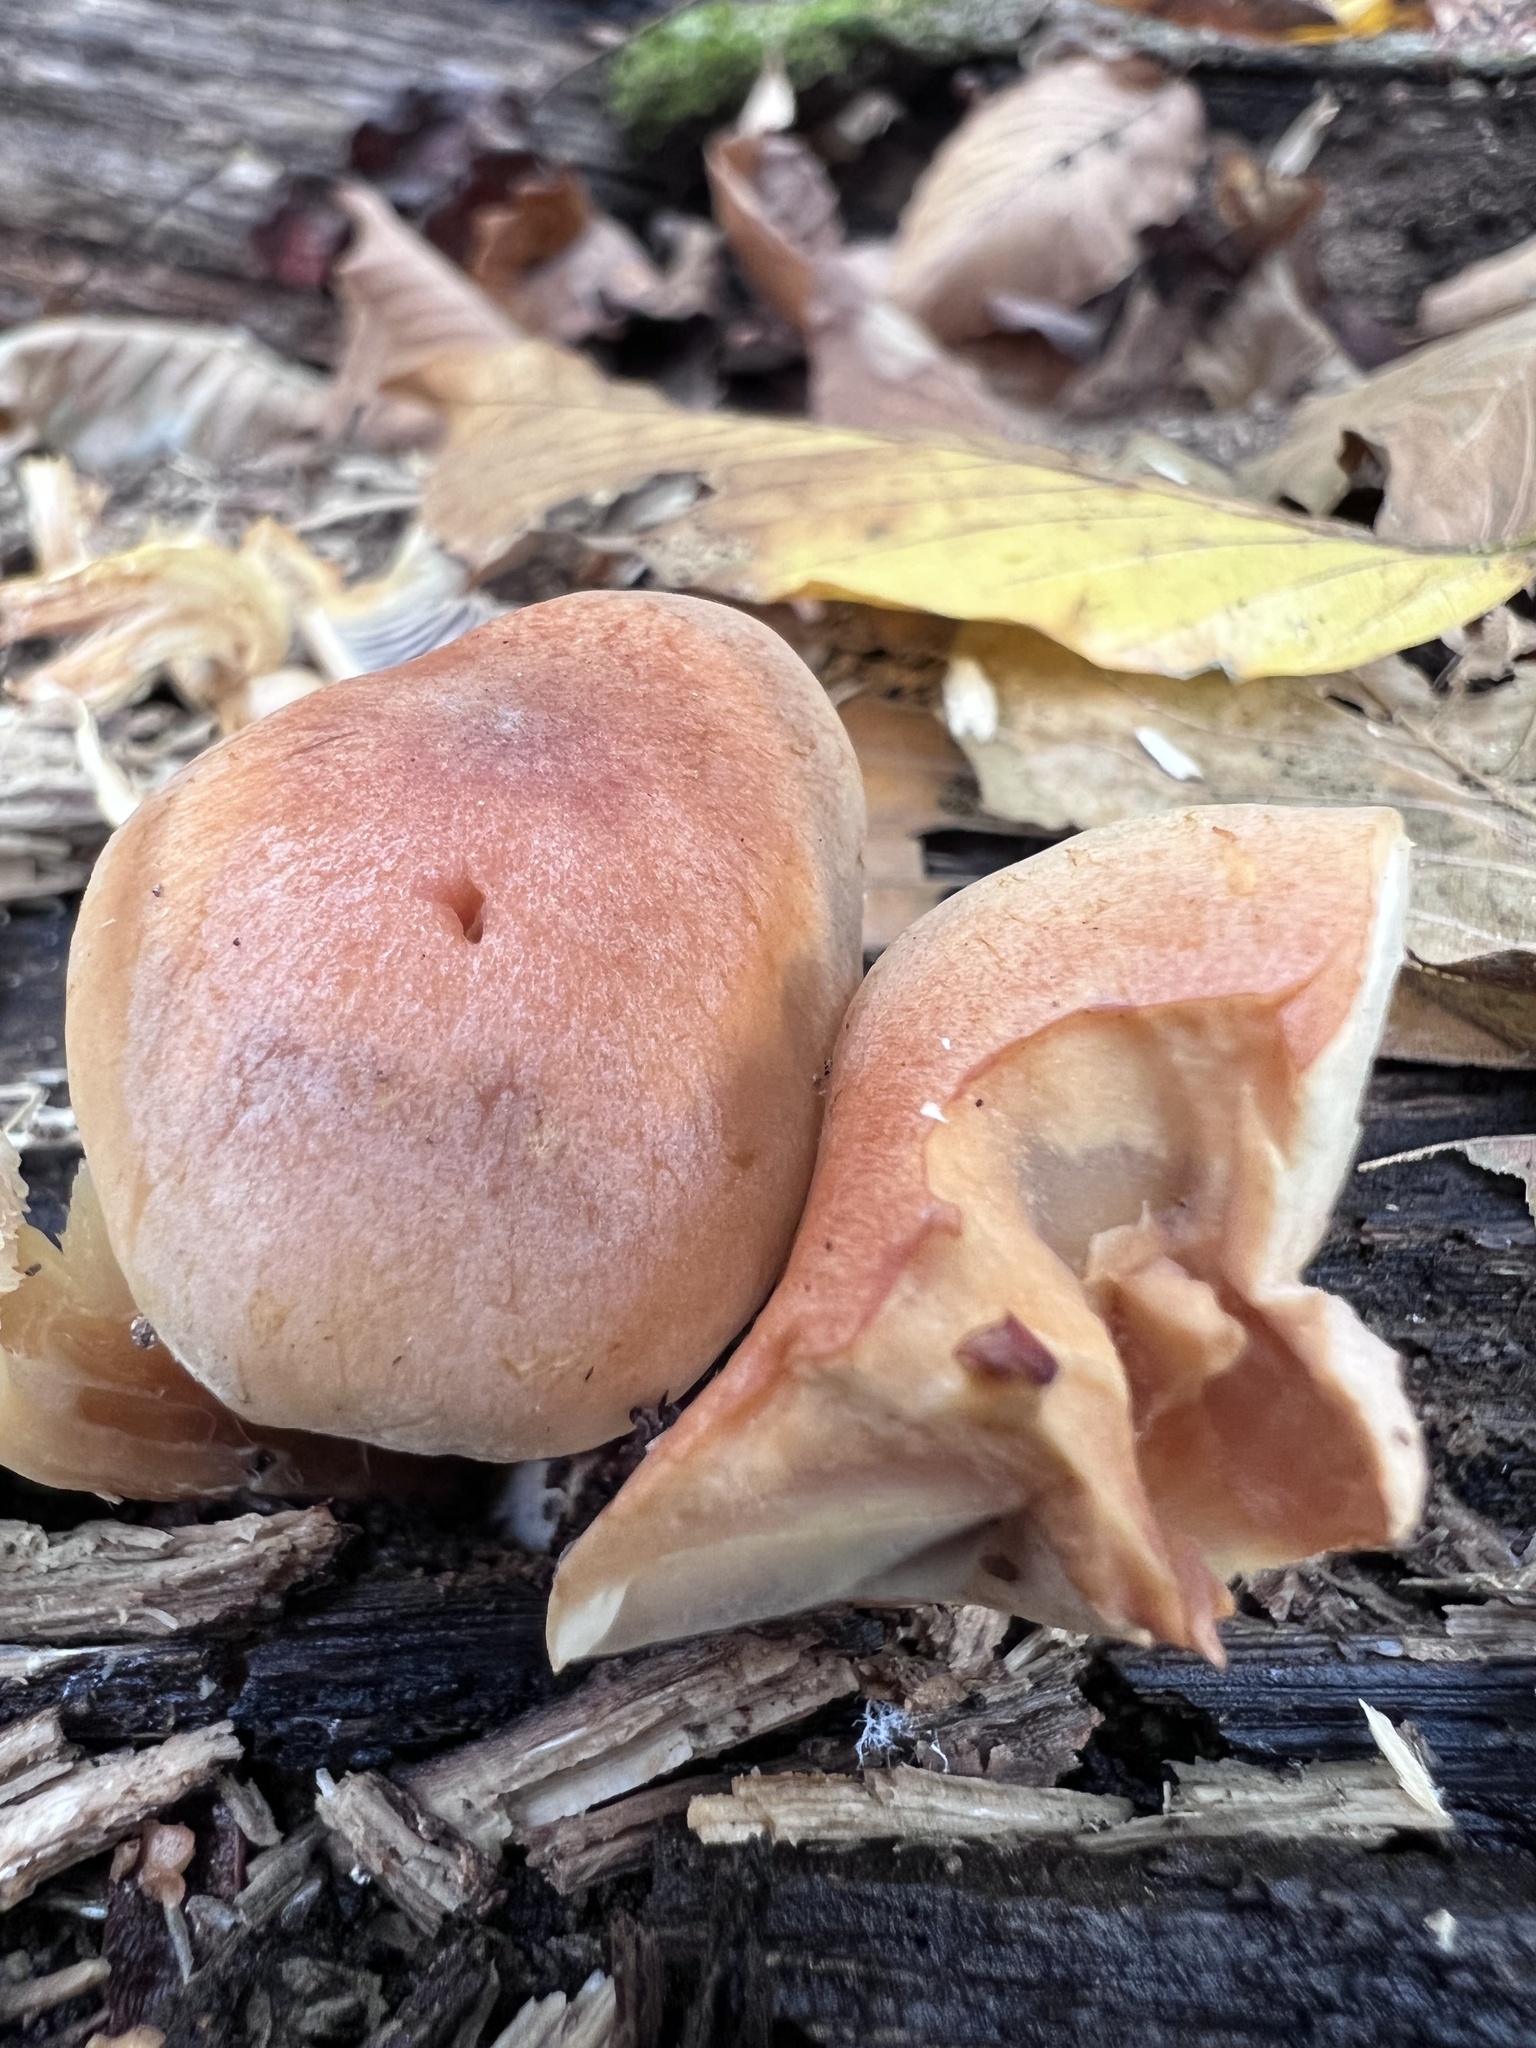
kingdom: Fungi
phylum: Basidiomycota
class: Agaricomycetes
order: Agaricales
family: Strophariaceae
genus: Hypholoma
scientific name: Hypholoma lateritium
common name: Brick caps
